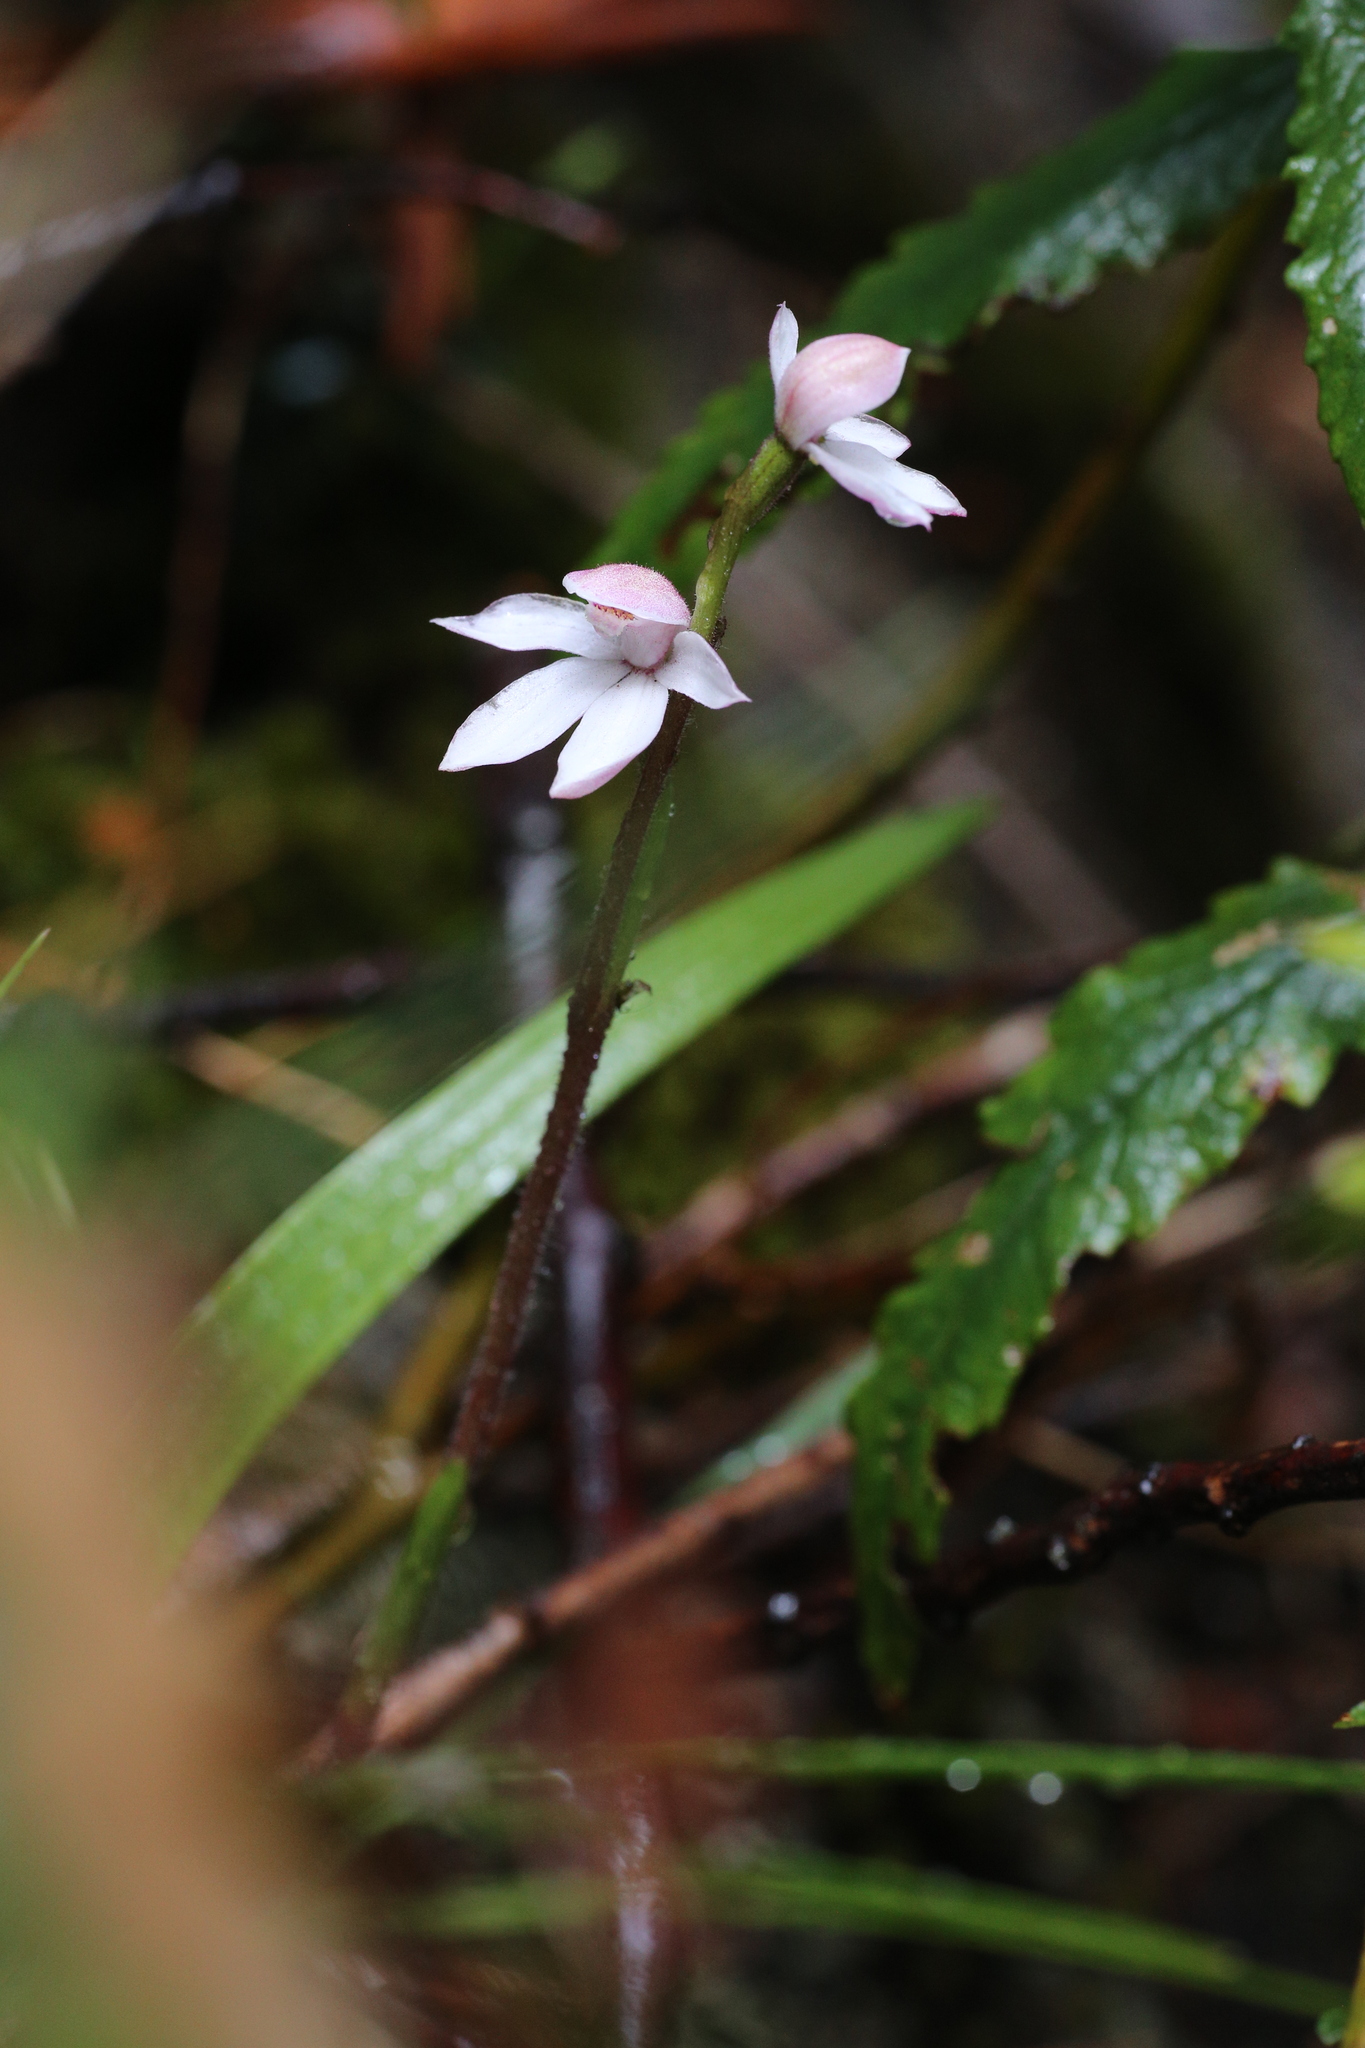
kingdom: Plantae
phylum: Tracheophyta
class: Liliopsida
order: Asparagales
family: Orchidaceae
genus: Caladenia
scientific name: Caladenia alpina
